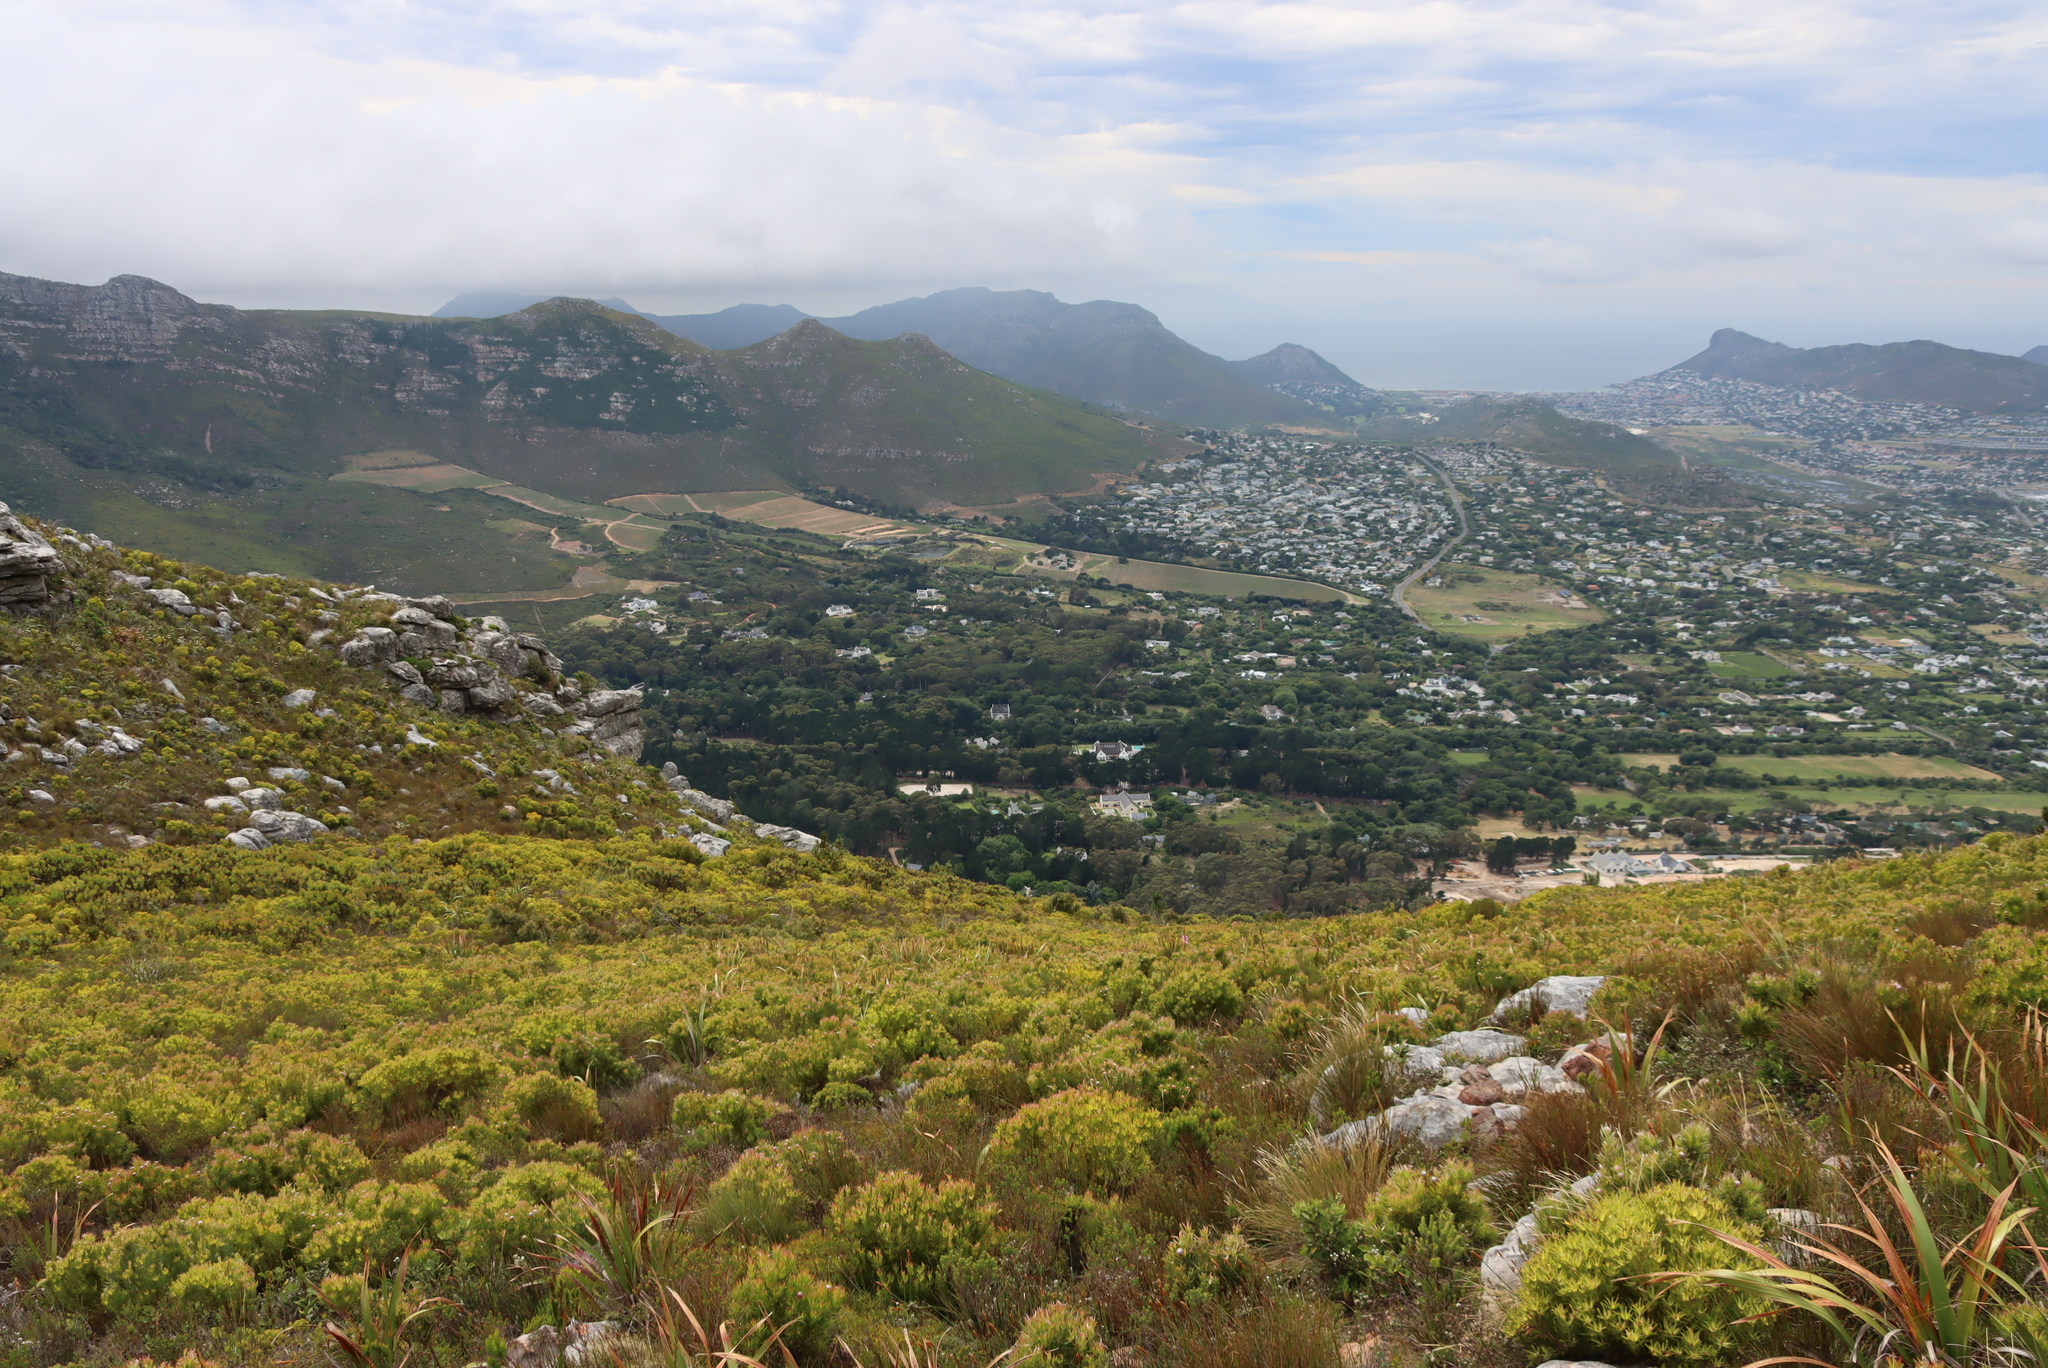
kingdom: Plantae
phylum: Tracheophyta
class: Magnoliopsida
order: Proteales
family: Proteaceae
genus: Leucadendron
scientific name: Leucadendron xanthoconus
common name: Sickle-leaf conebush
